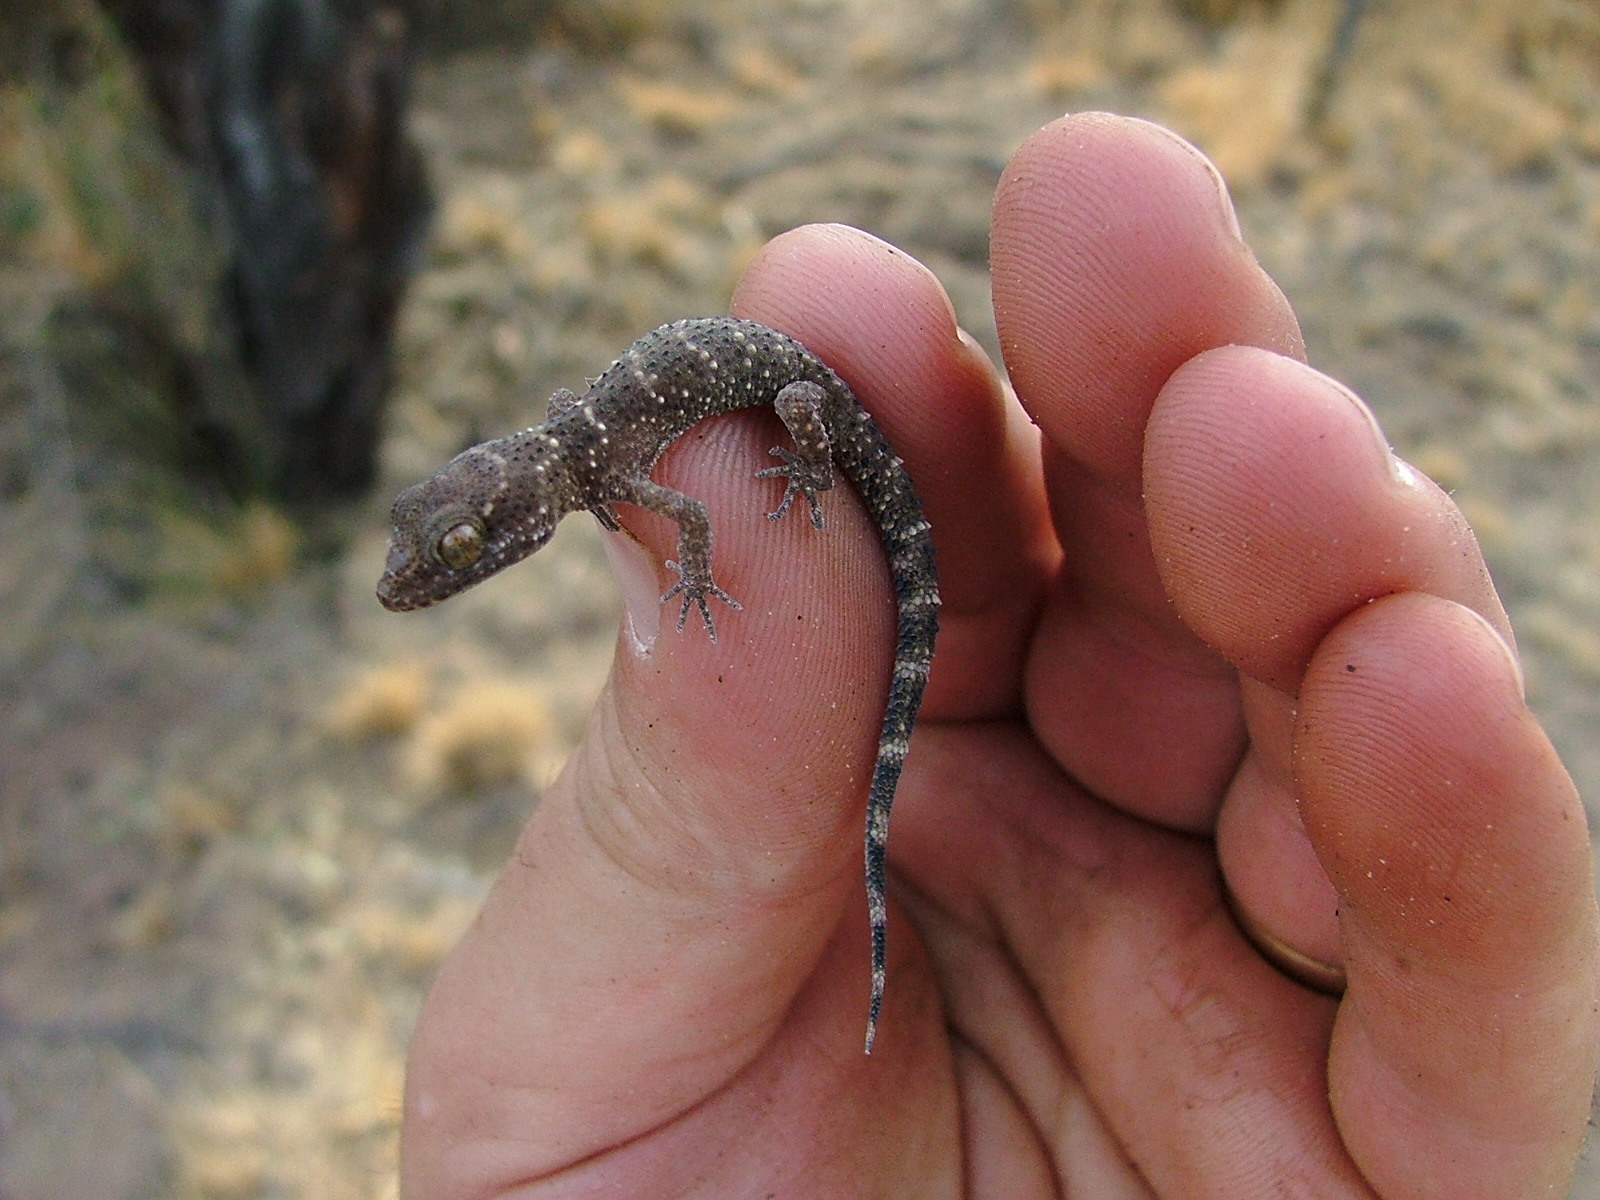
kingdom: Animalia
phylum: Chordata
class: Squamata
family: Phyllodactylidae
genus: Homonota
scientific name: Homonota horrida
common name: South american marked gecko
